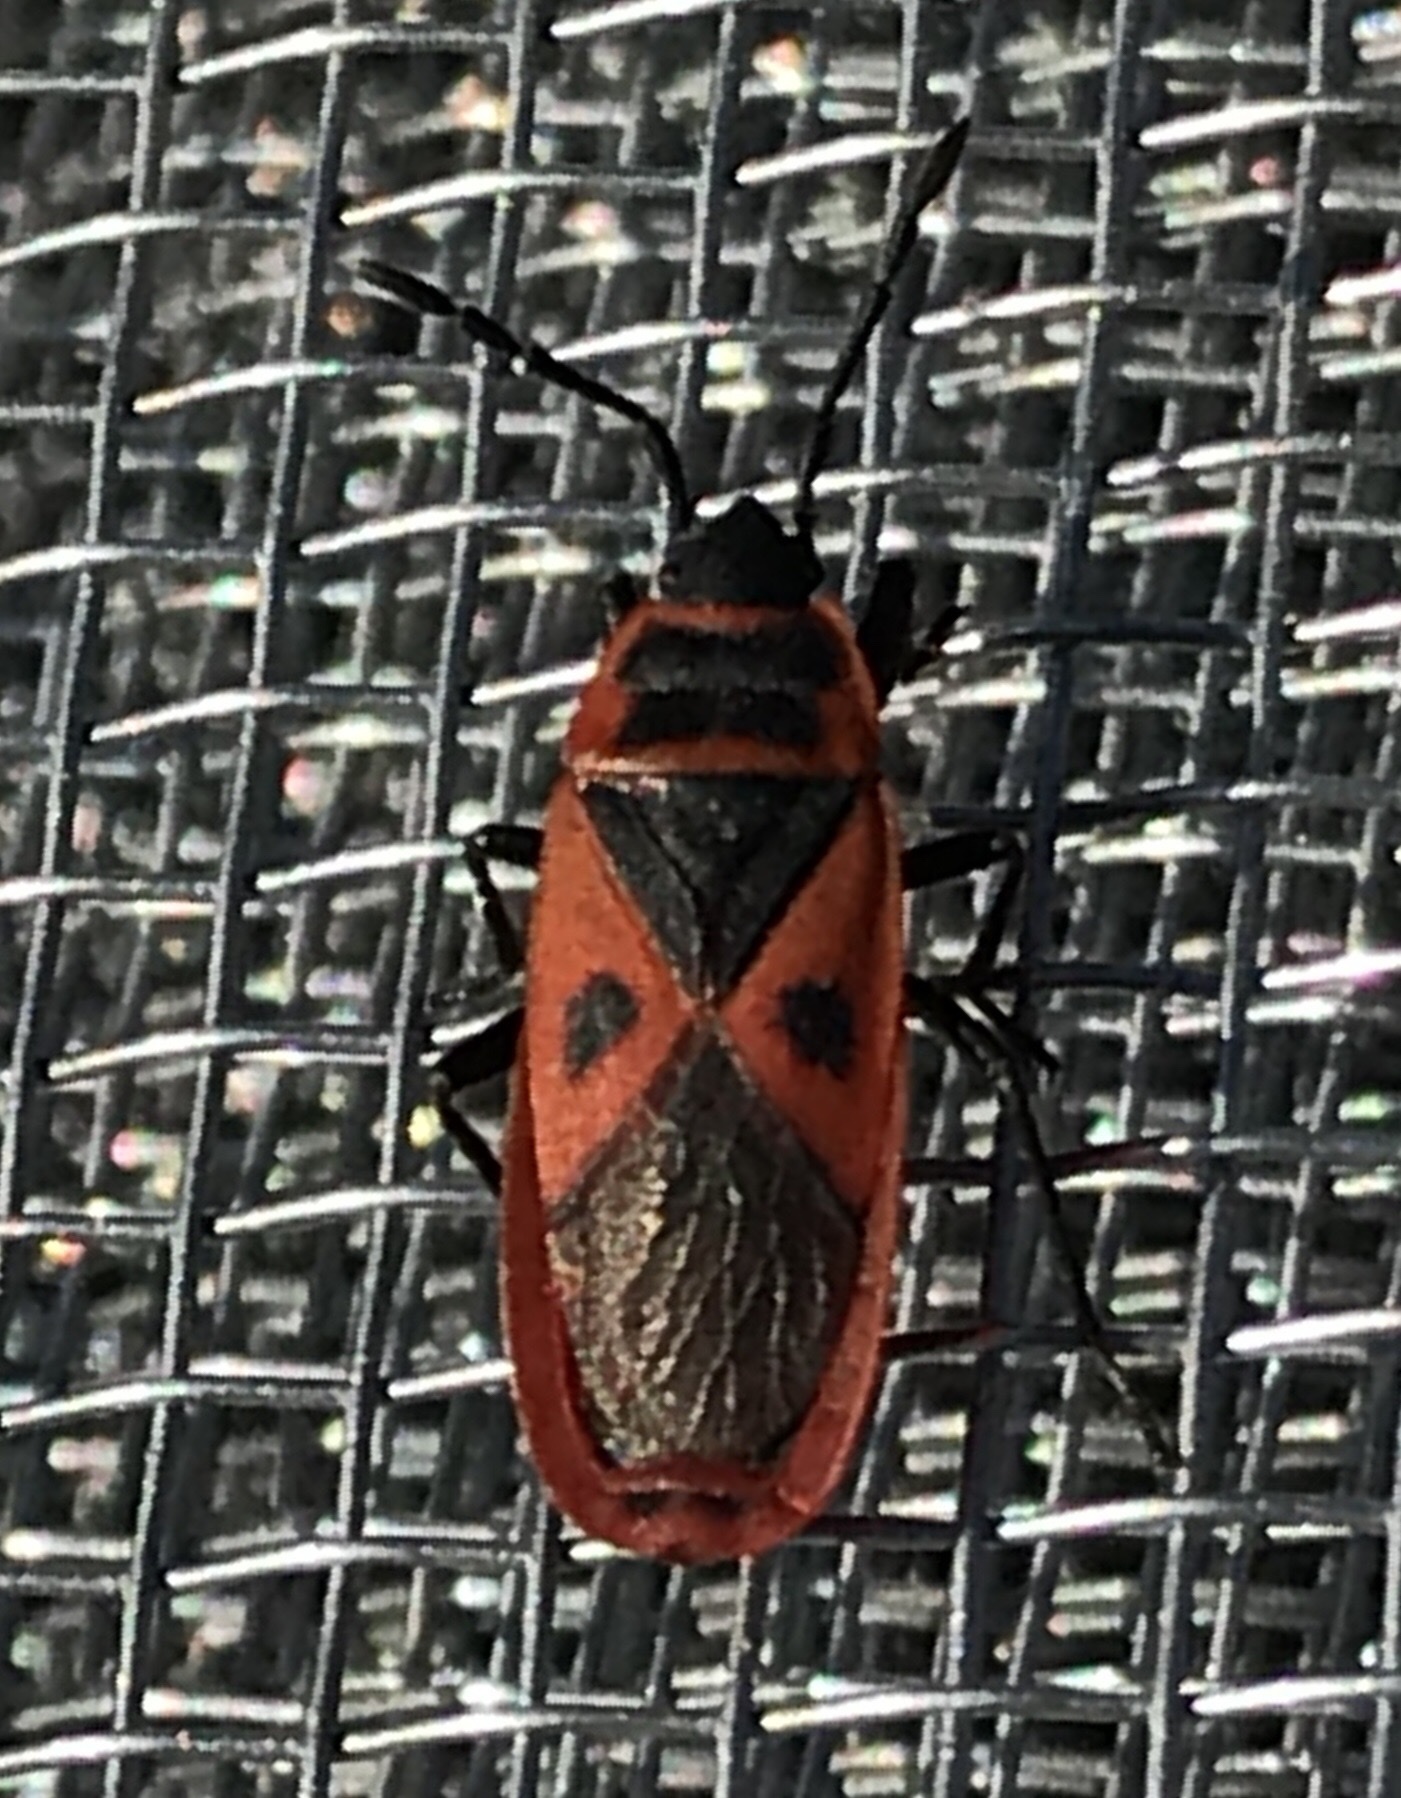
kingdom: Animalia
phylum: Arthropoda
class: Insecta
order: Hemiptera
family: Pyrrhocoridae
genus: Scantius
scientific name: Scantius aegyptius
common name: Red bug
